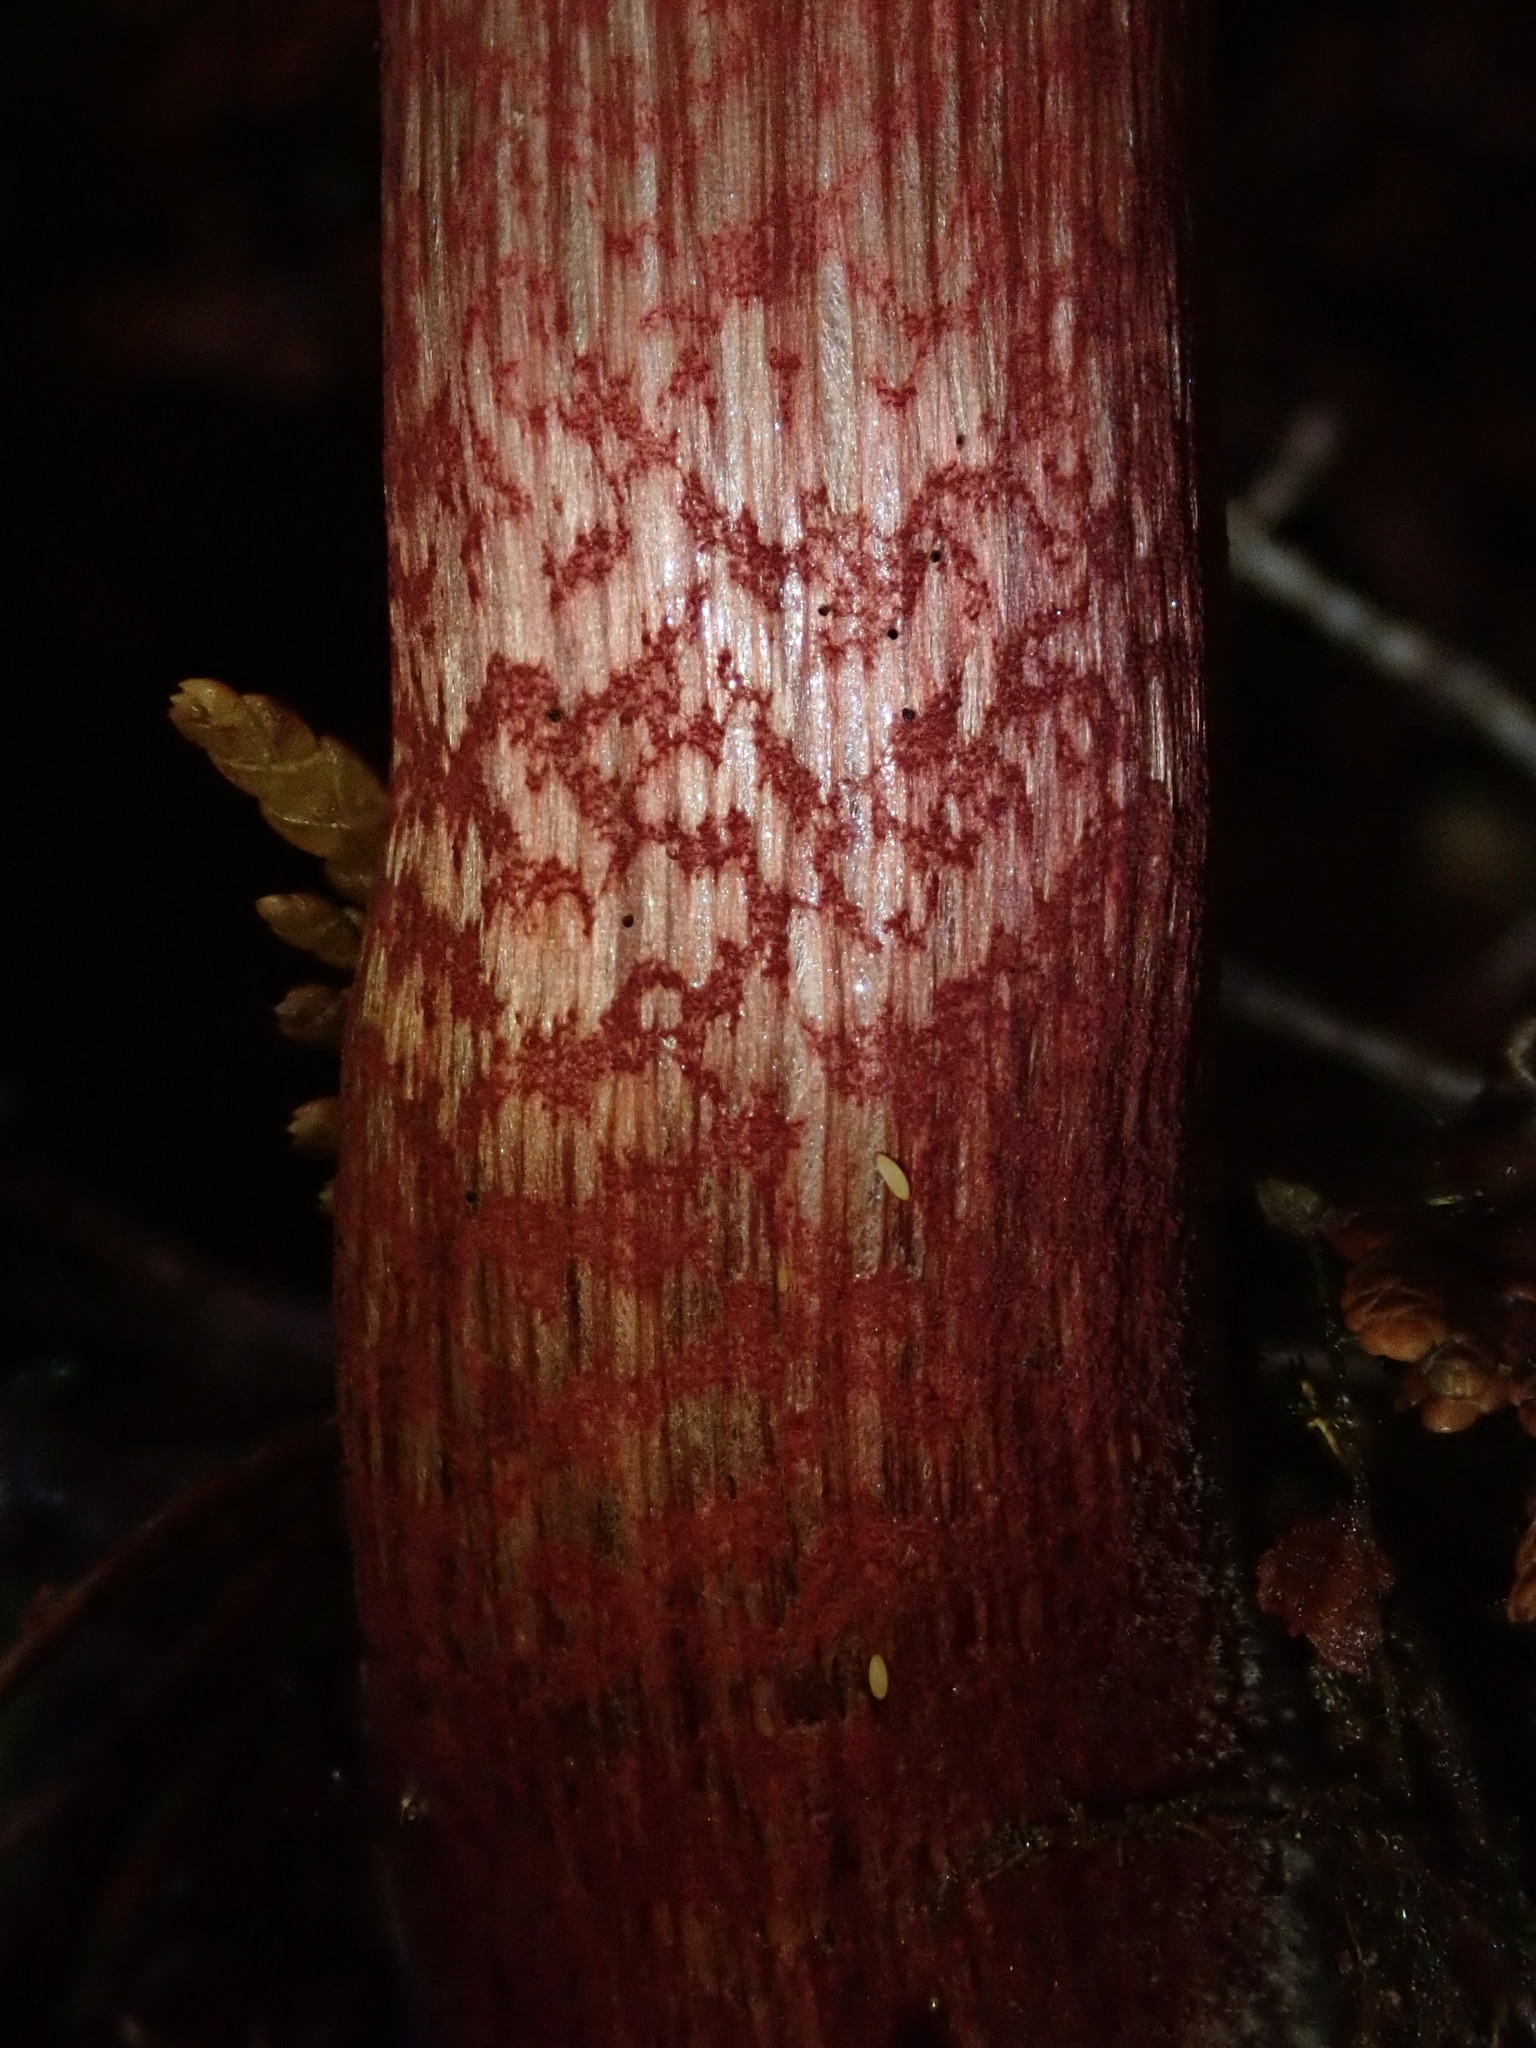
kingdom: Fungi
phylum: Basidiomycota
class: Agaricomycetes
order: Boletales
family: Boletaceae
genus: Xerocomellus
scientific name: Xerocomellus atropurpureus
